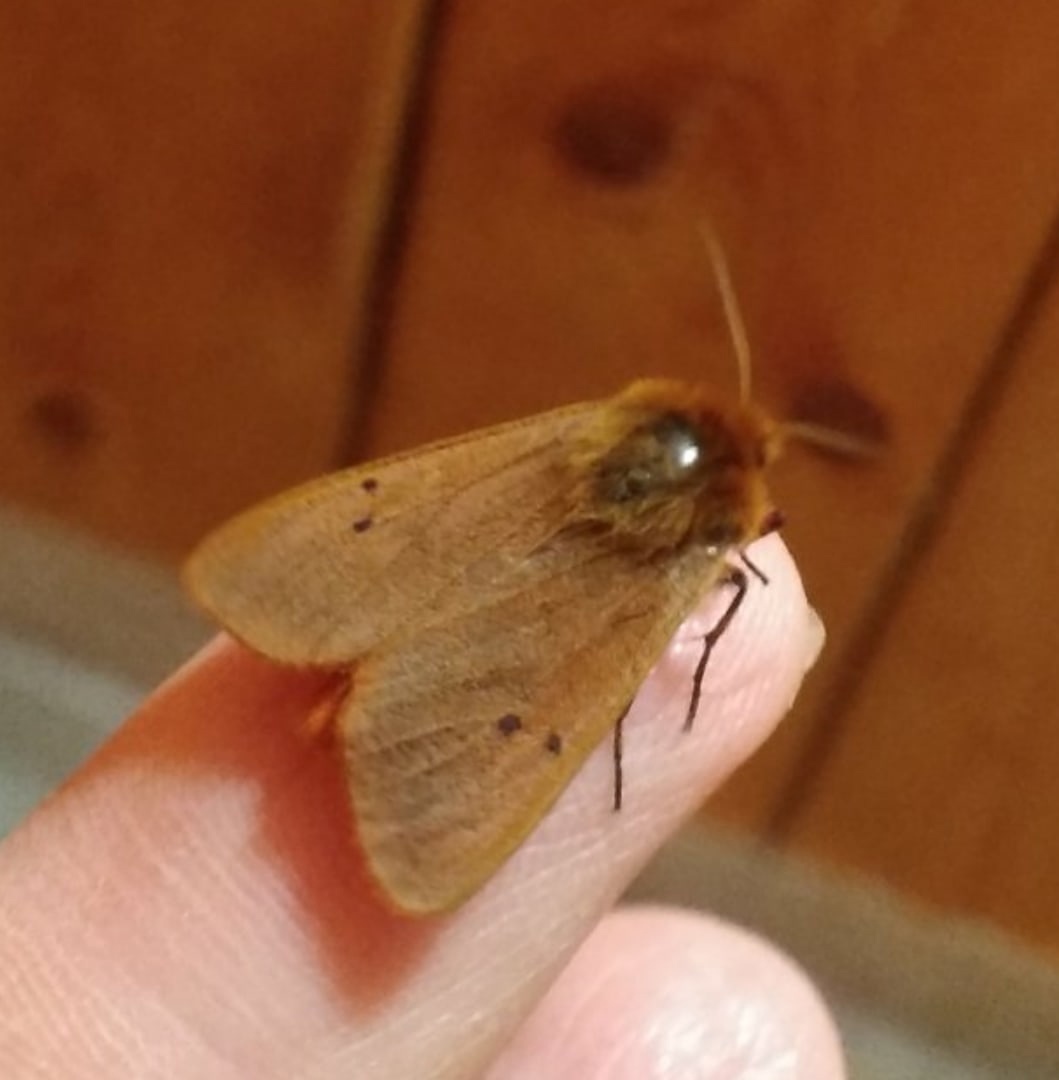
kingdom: Animalia
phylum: Arthropoda
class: Insecta
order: Lepidoptera
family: Erebidae
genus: Phragmatobia
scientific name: Phragmatobia fuliginosa
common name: Ruby tiger
